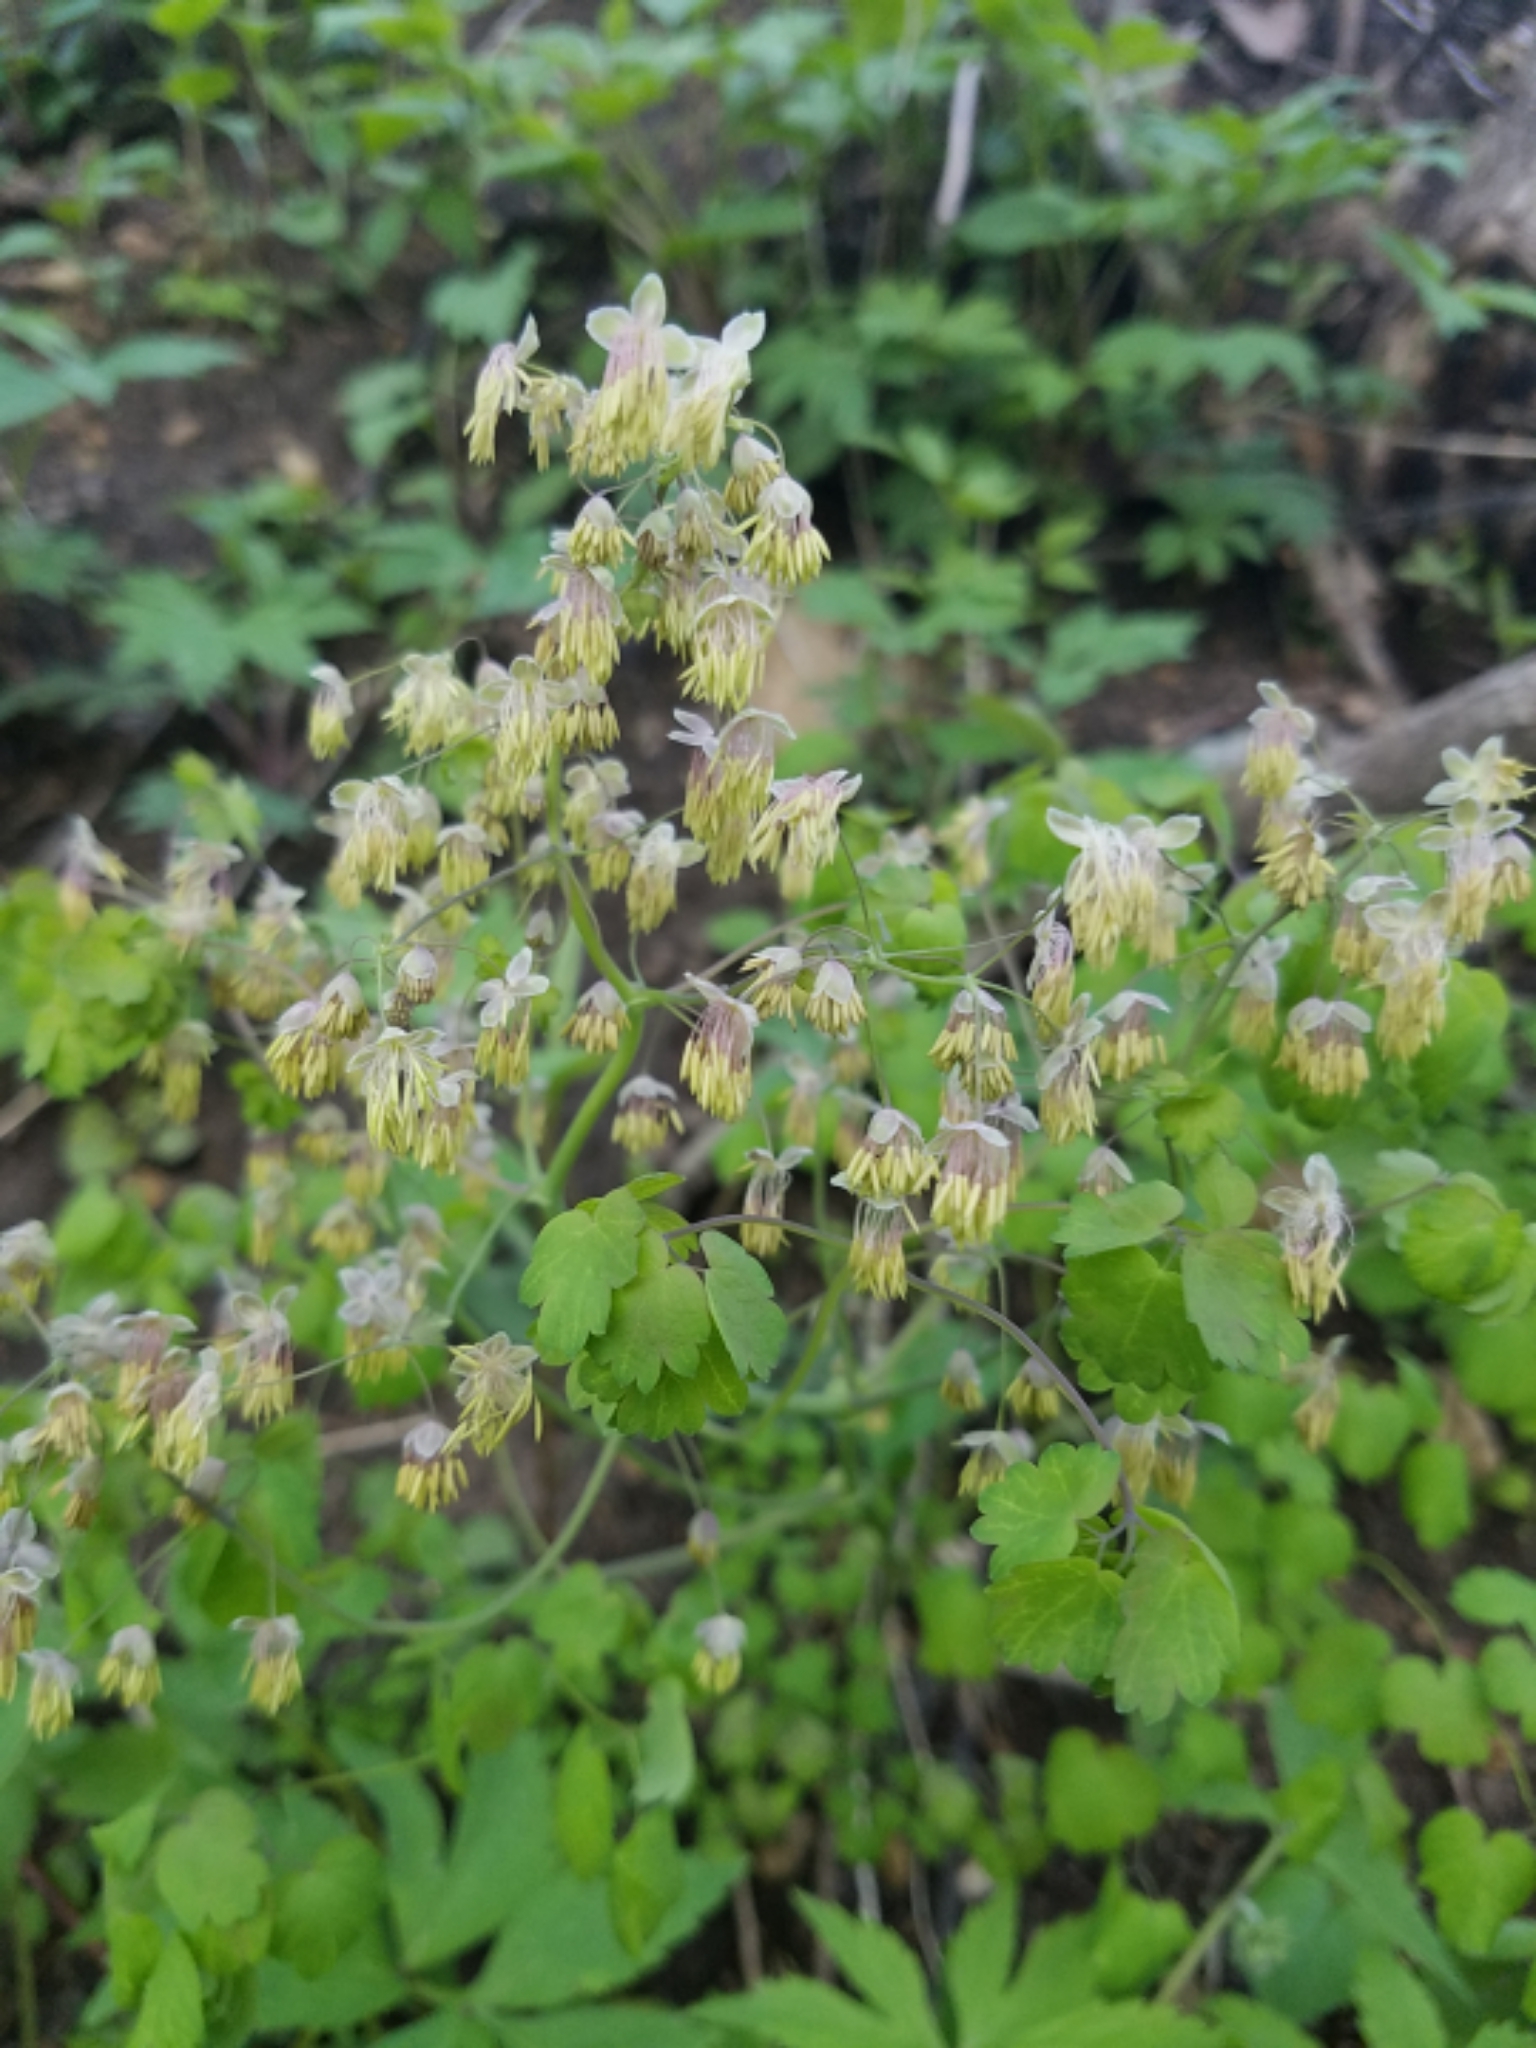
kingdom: Plantae
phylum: Tracheophyta
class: Magnoliopsida
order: Ranunculales
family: Ranunculaceae
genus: Thalictrum
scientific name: Thalictrum dioicum
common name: Early meadow-rue
